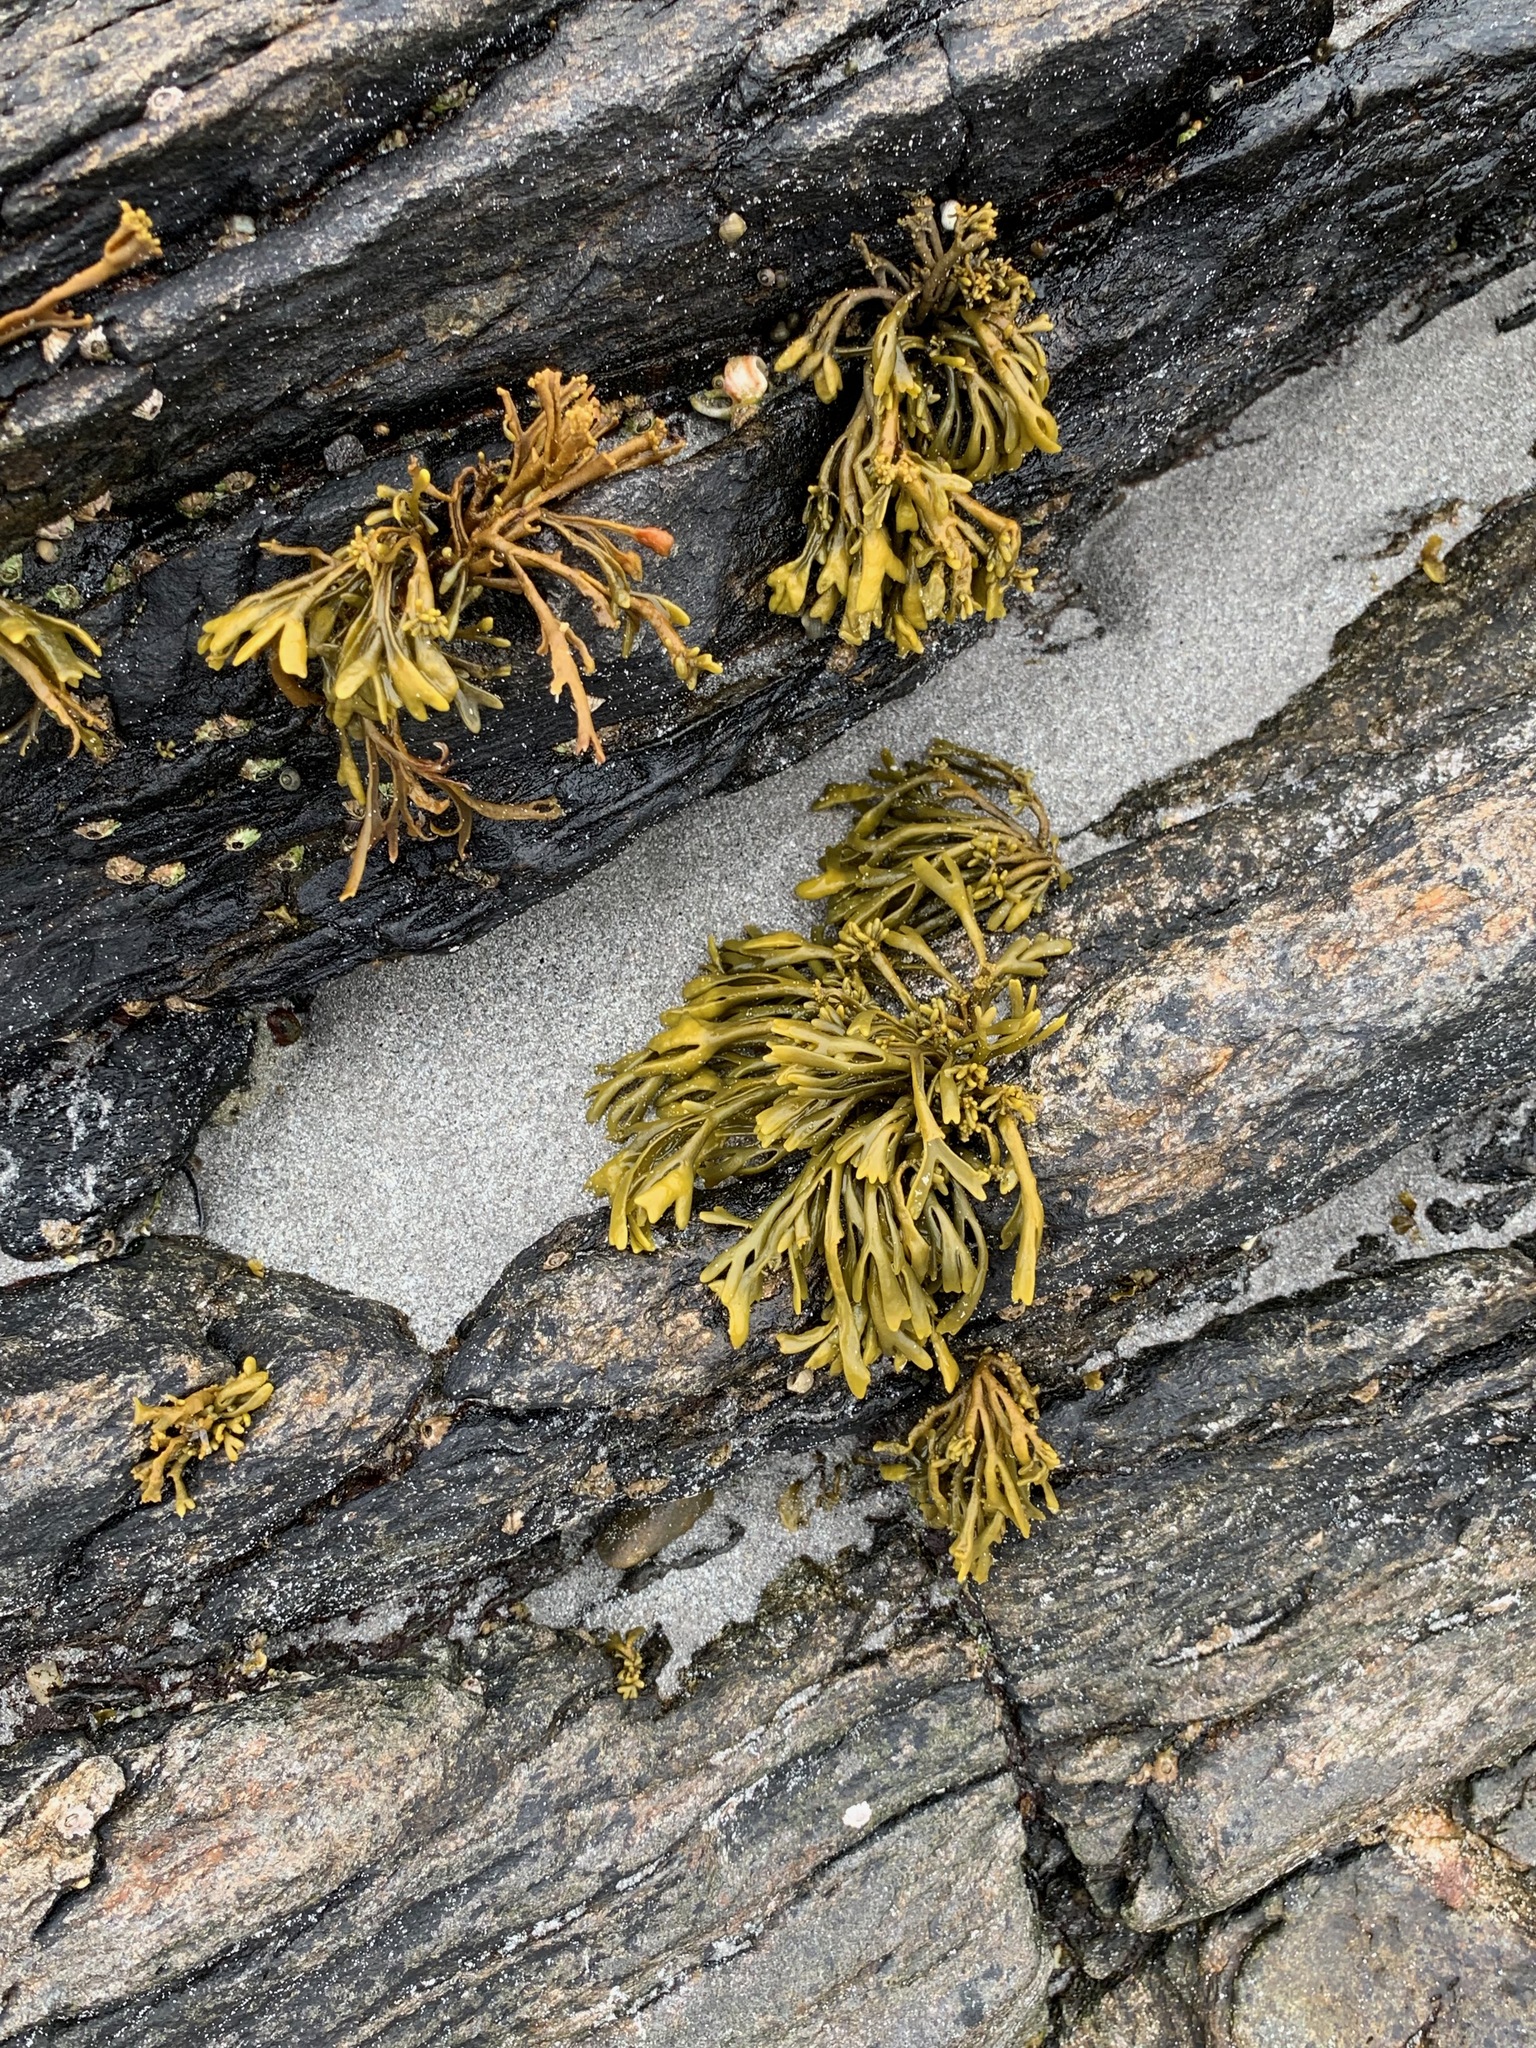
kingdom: Chromista
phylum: Ochrophyta
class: Phaeophyceae
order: Fucales
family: Fucaceae
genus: Pelvetia
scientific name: Pelvetia canaliculata
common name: Channelled wrack
